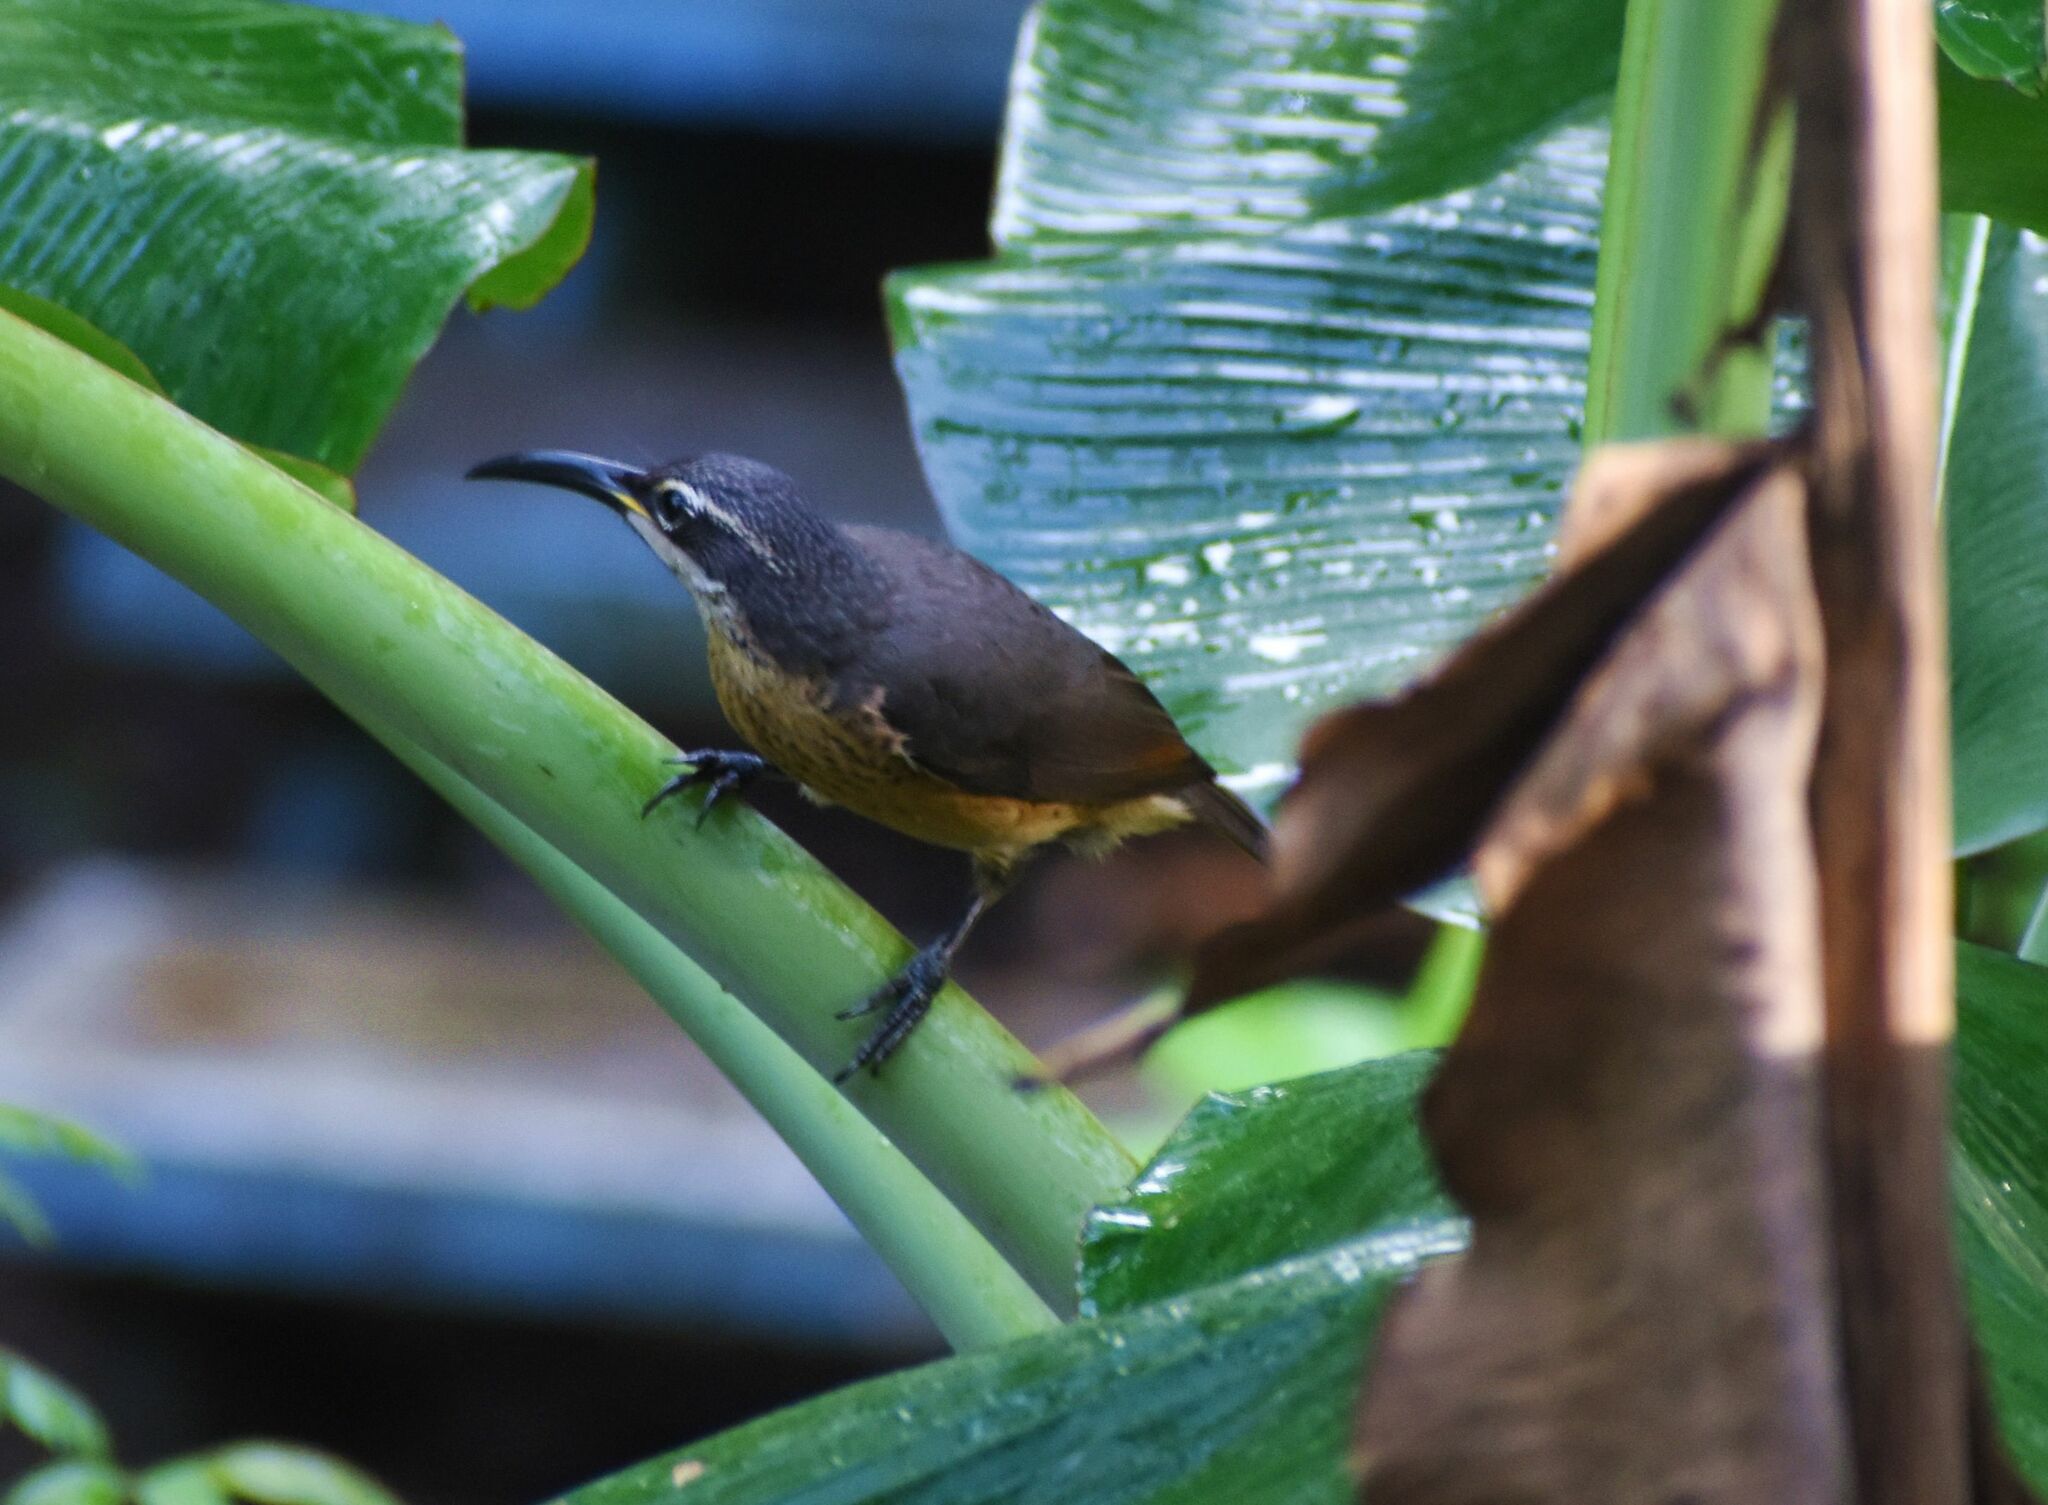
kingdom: Animalia
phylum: Chordata
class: Aves
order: Passeriformes
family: Paradisaeidae
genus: Ptiloris
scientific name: Ptiloris victoriae
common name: Victoria's riflebird
